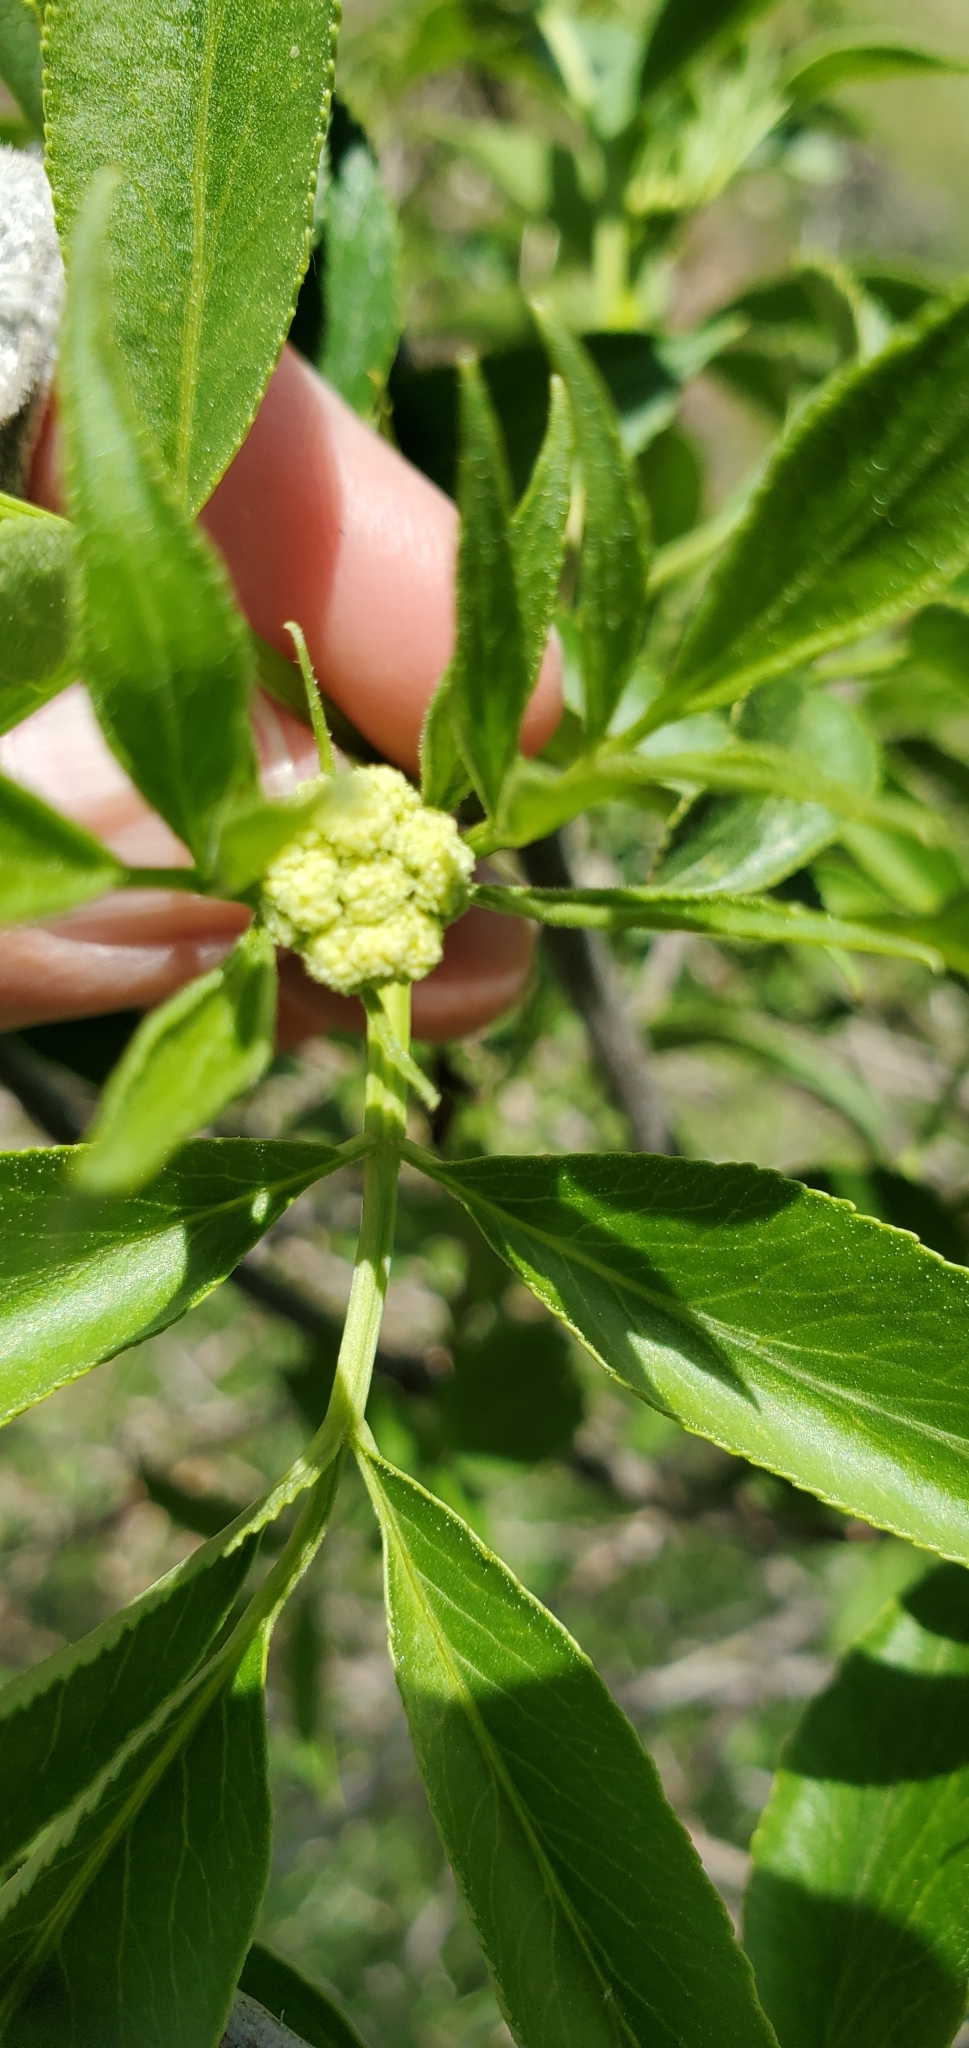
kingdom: Plantae
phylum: Tracheophyta
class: Magnoliopsida
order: Dipsacales
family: Viburnaceae
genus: Sambucus
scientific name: Sambucus cerulea
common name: Blue elder
